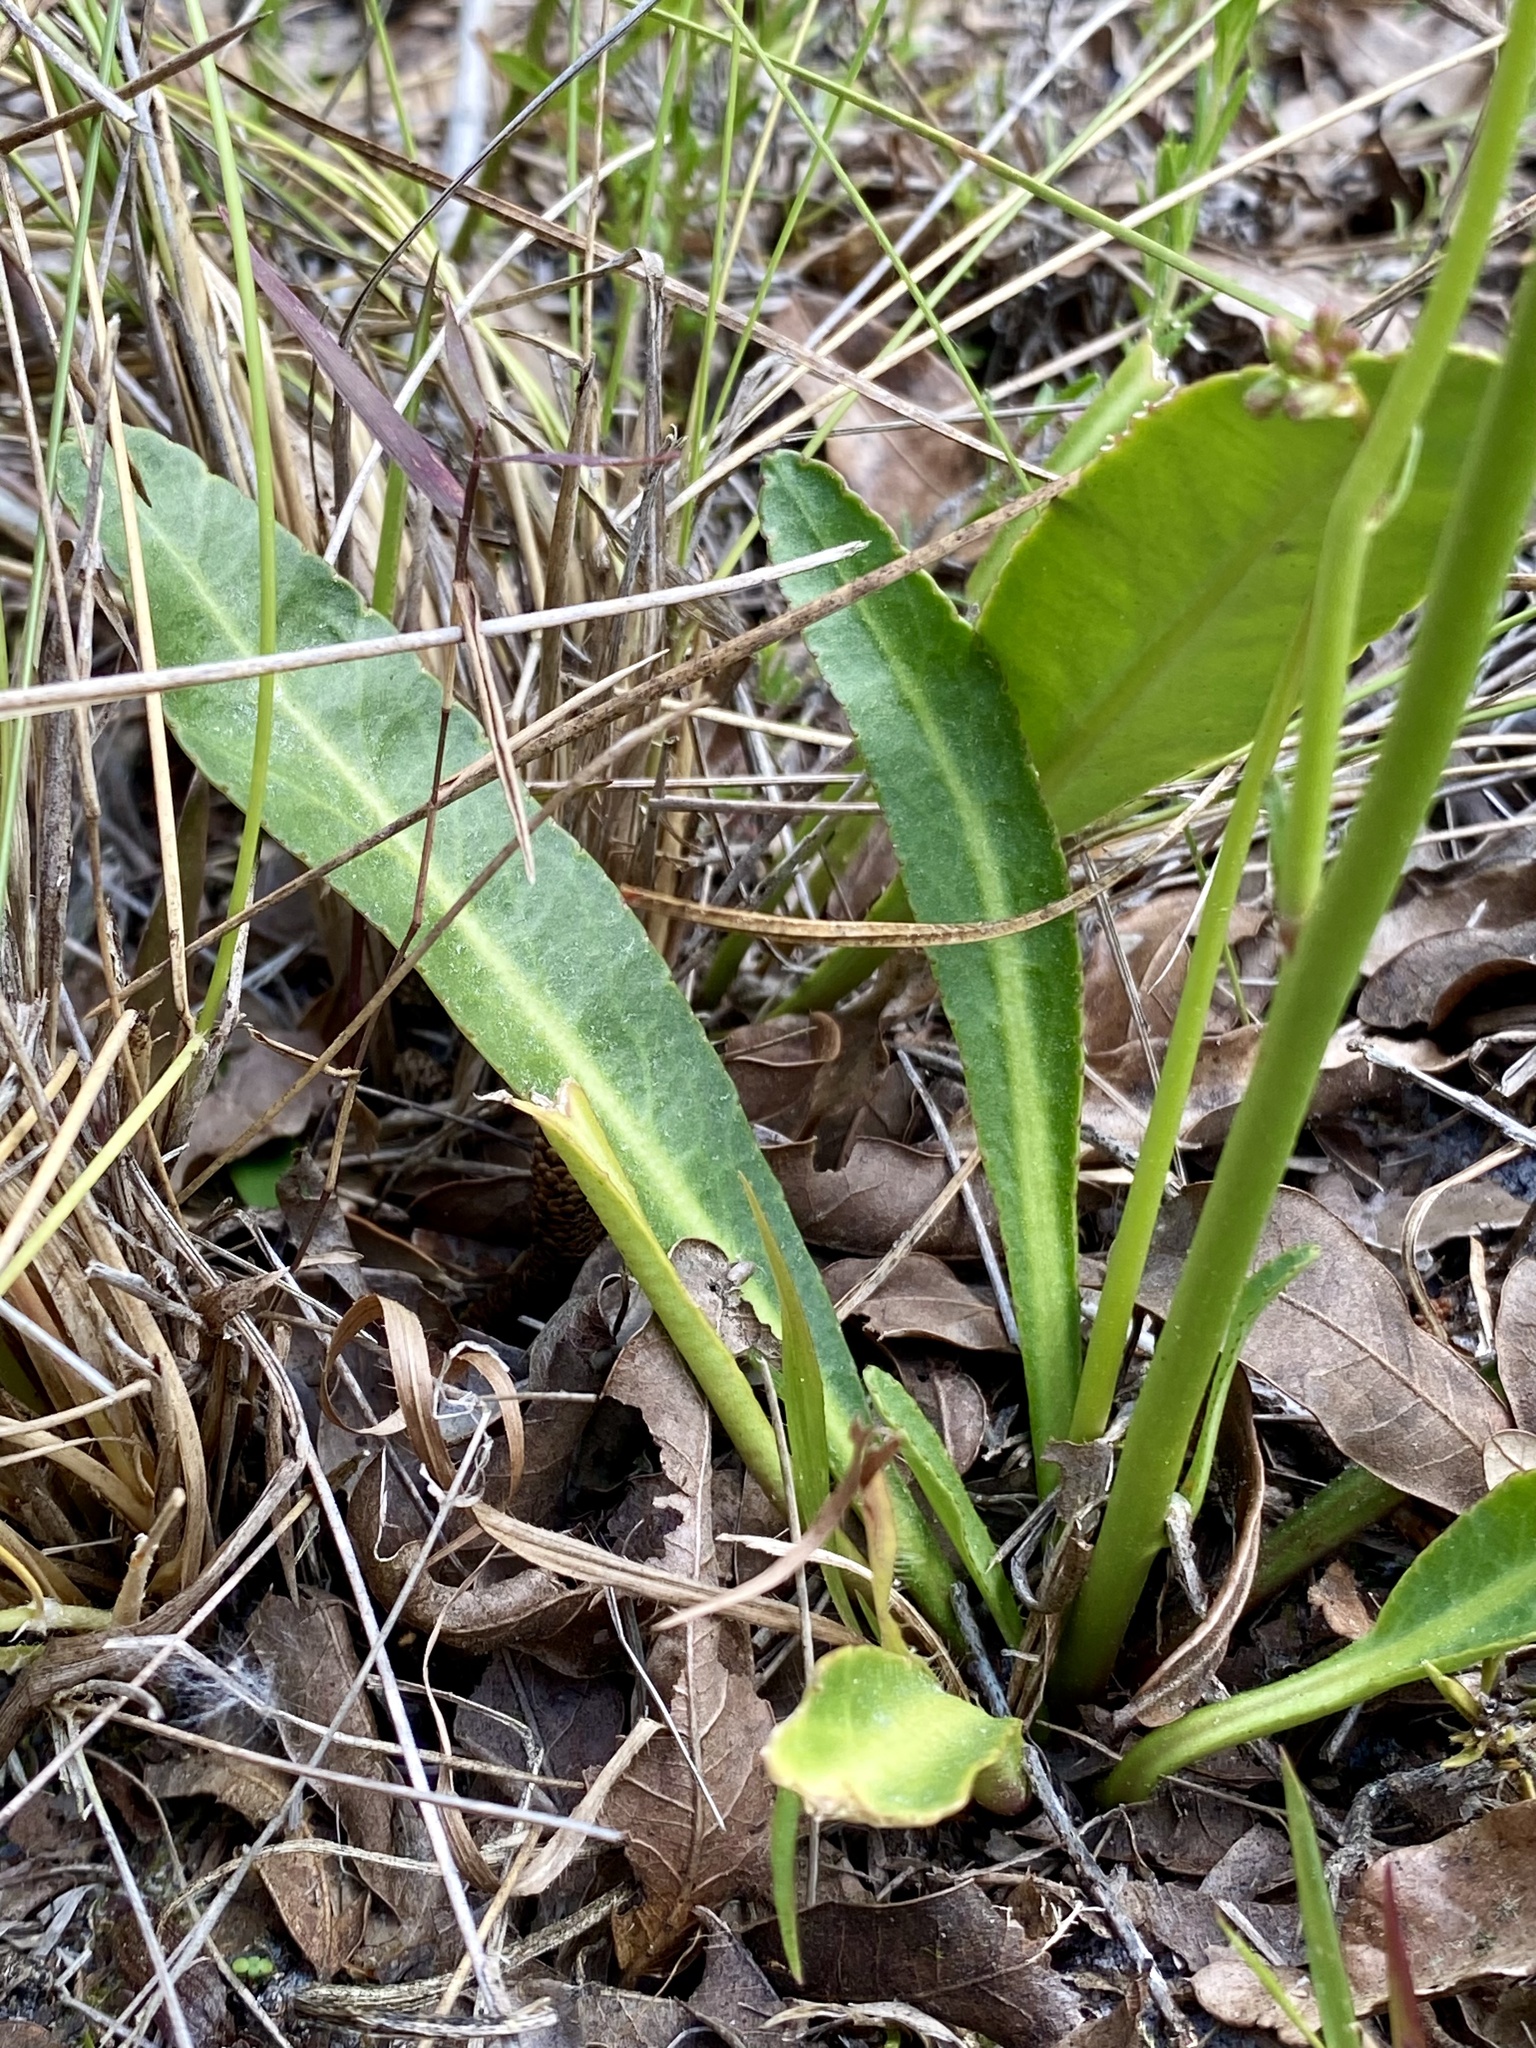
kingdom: Plantae
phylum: Tracheophyta
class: Magnoliopsida
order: Asterales
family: Campanulaceae
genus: Lobelia
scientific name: Lobelia paludosa
